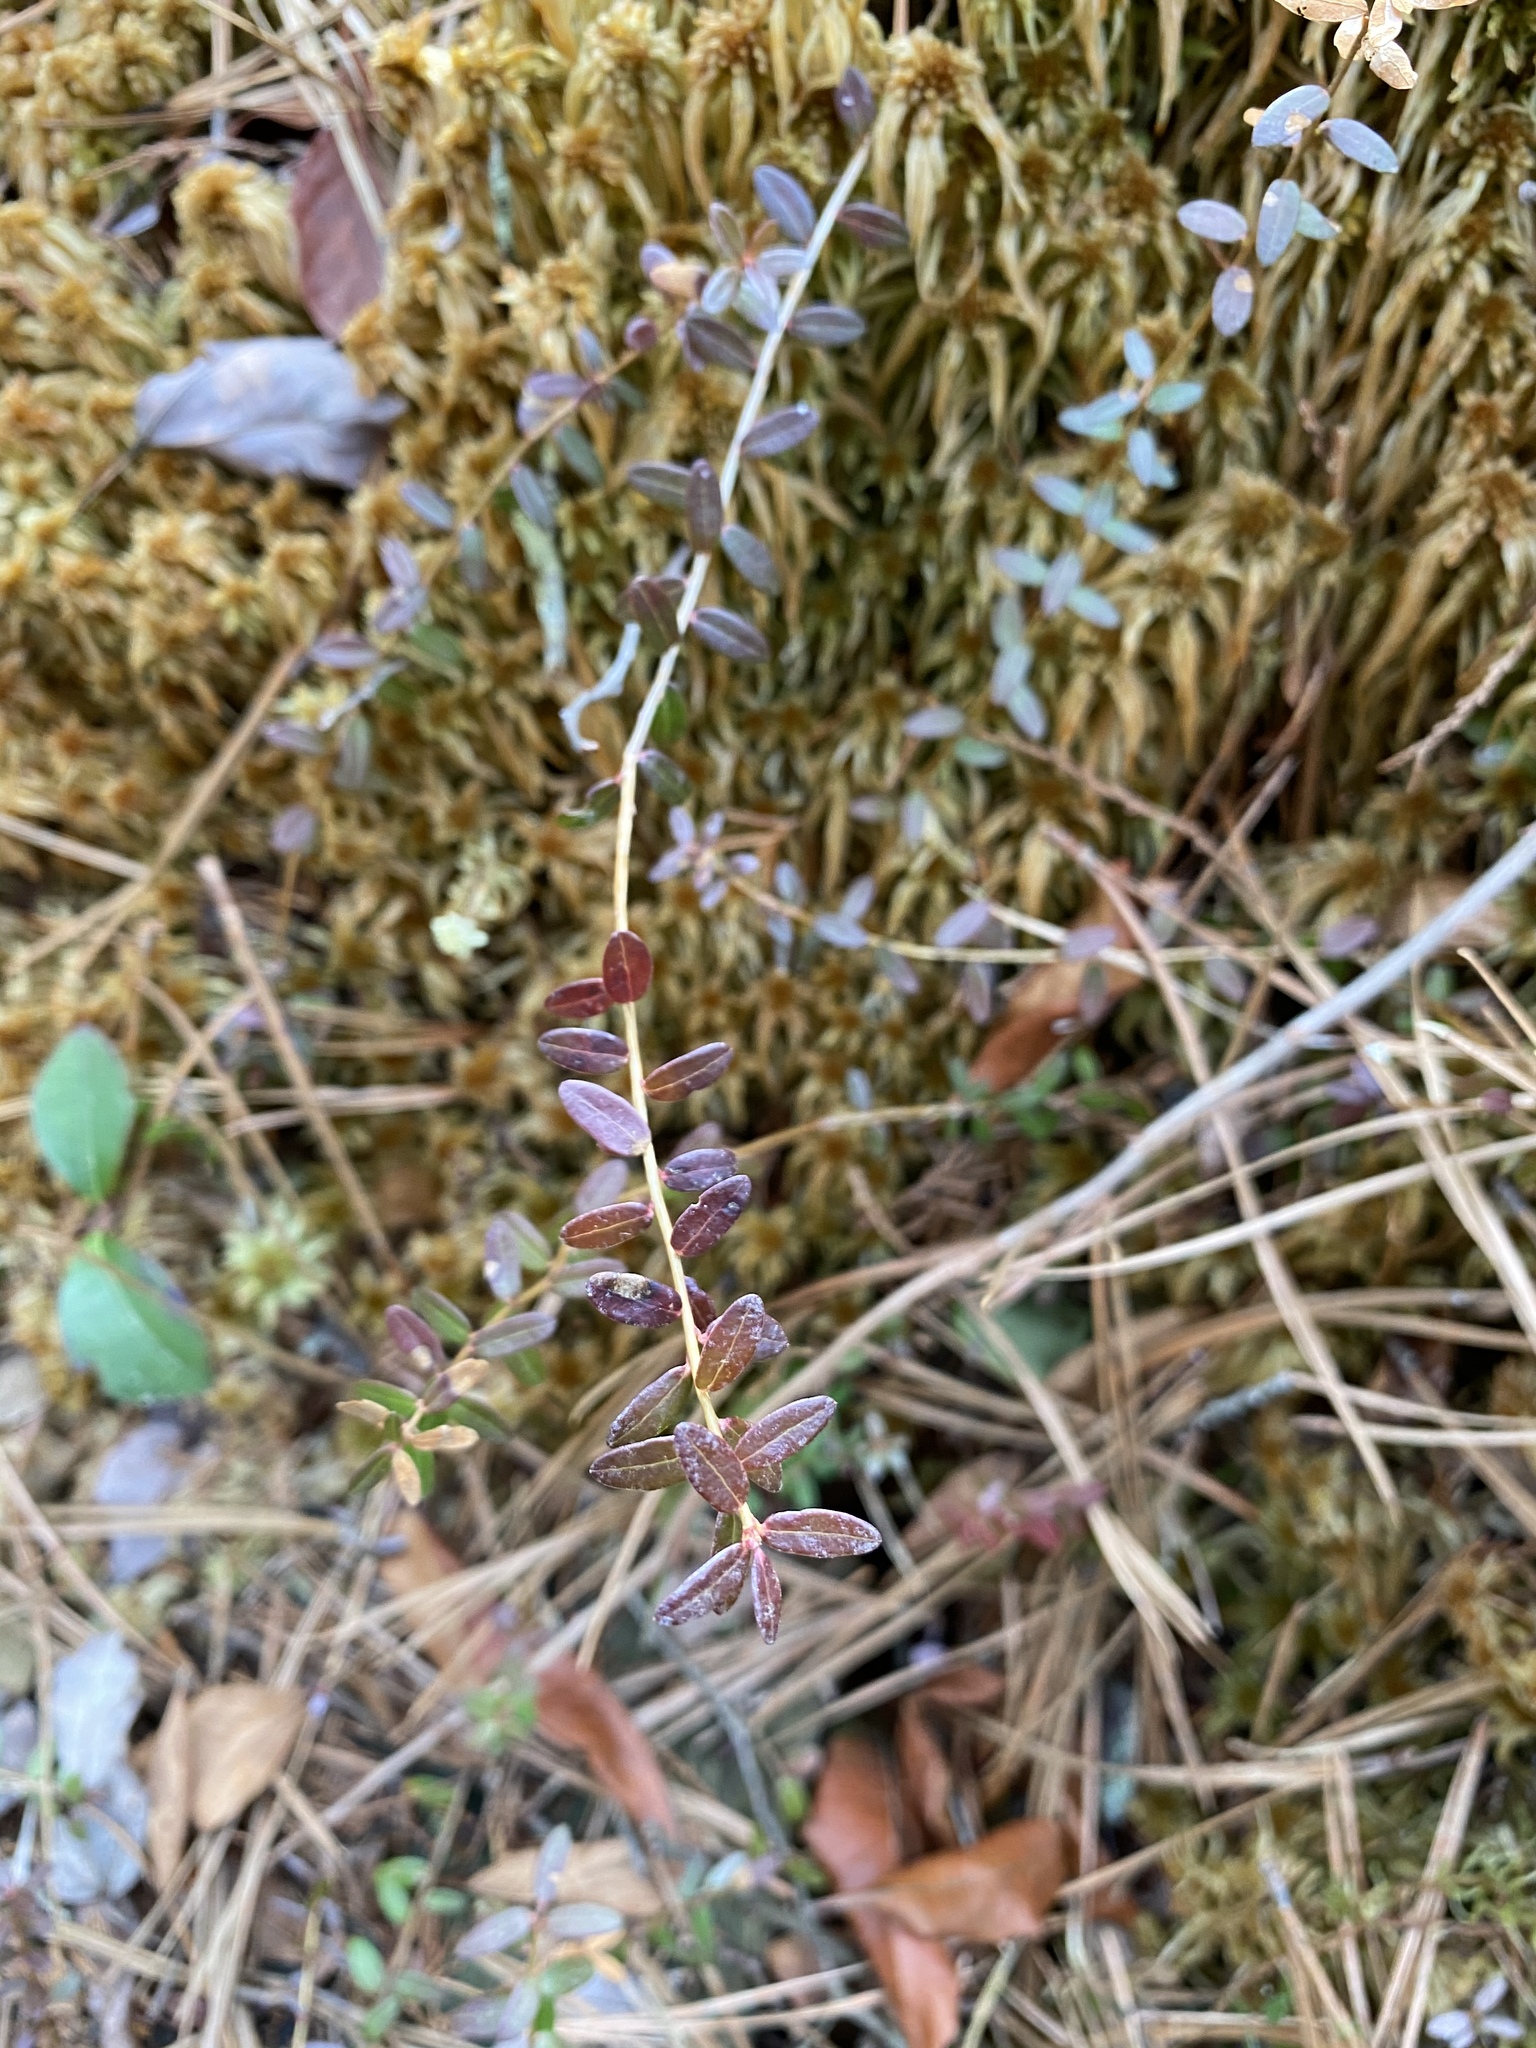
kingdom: Plantae
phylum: Tracheophyta
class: Magnoliopsida
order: Ericales
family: Ericaceae
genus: Vaccinium
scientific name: Vaccinium macrocarpon
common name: American cranberry
